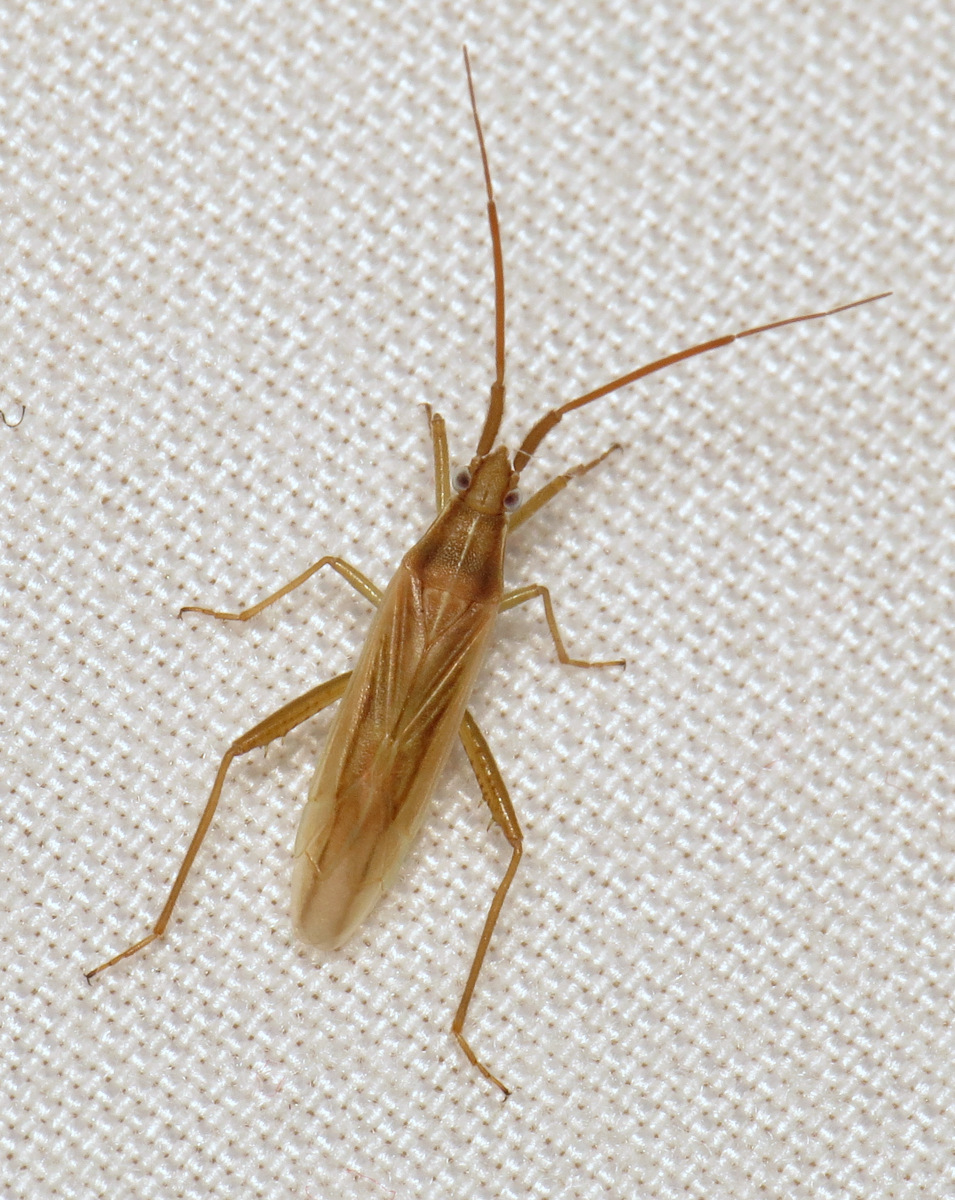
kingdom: Animalia
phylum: Arthropoda
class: Insecta
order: Hemiptera
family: Miridae
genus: Stenodema
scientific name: Stenodema trispinosa
